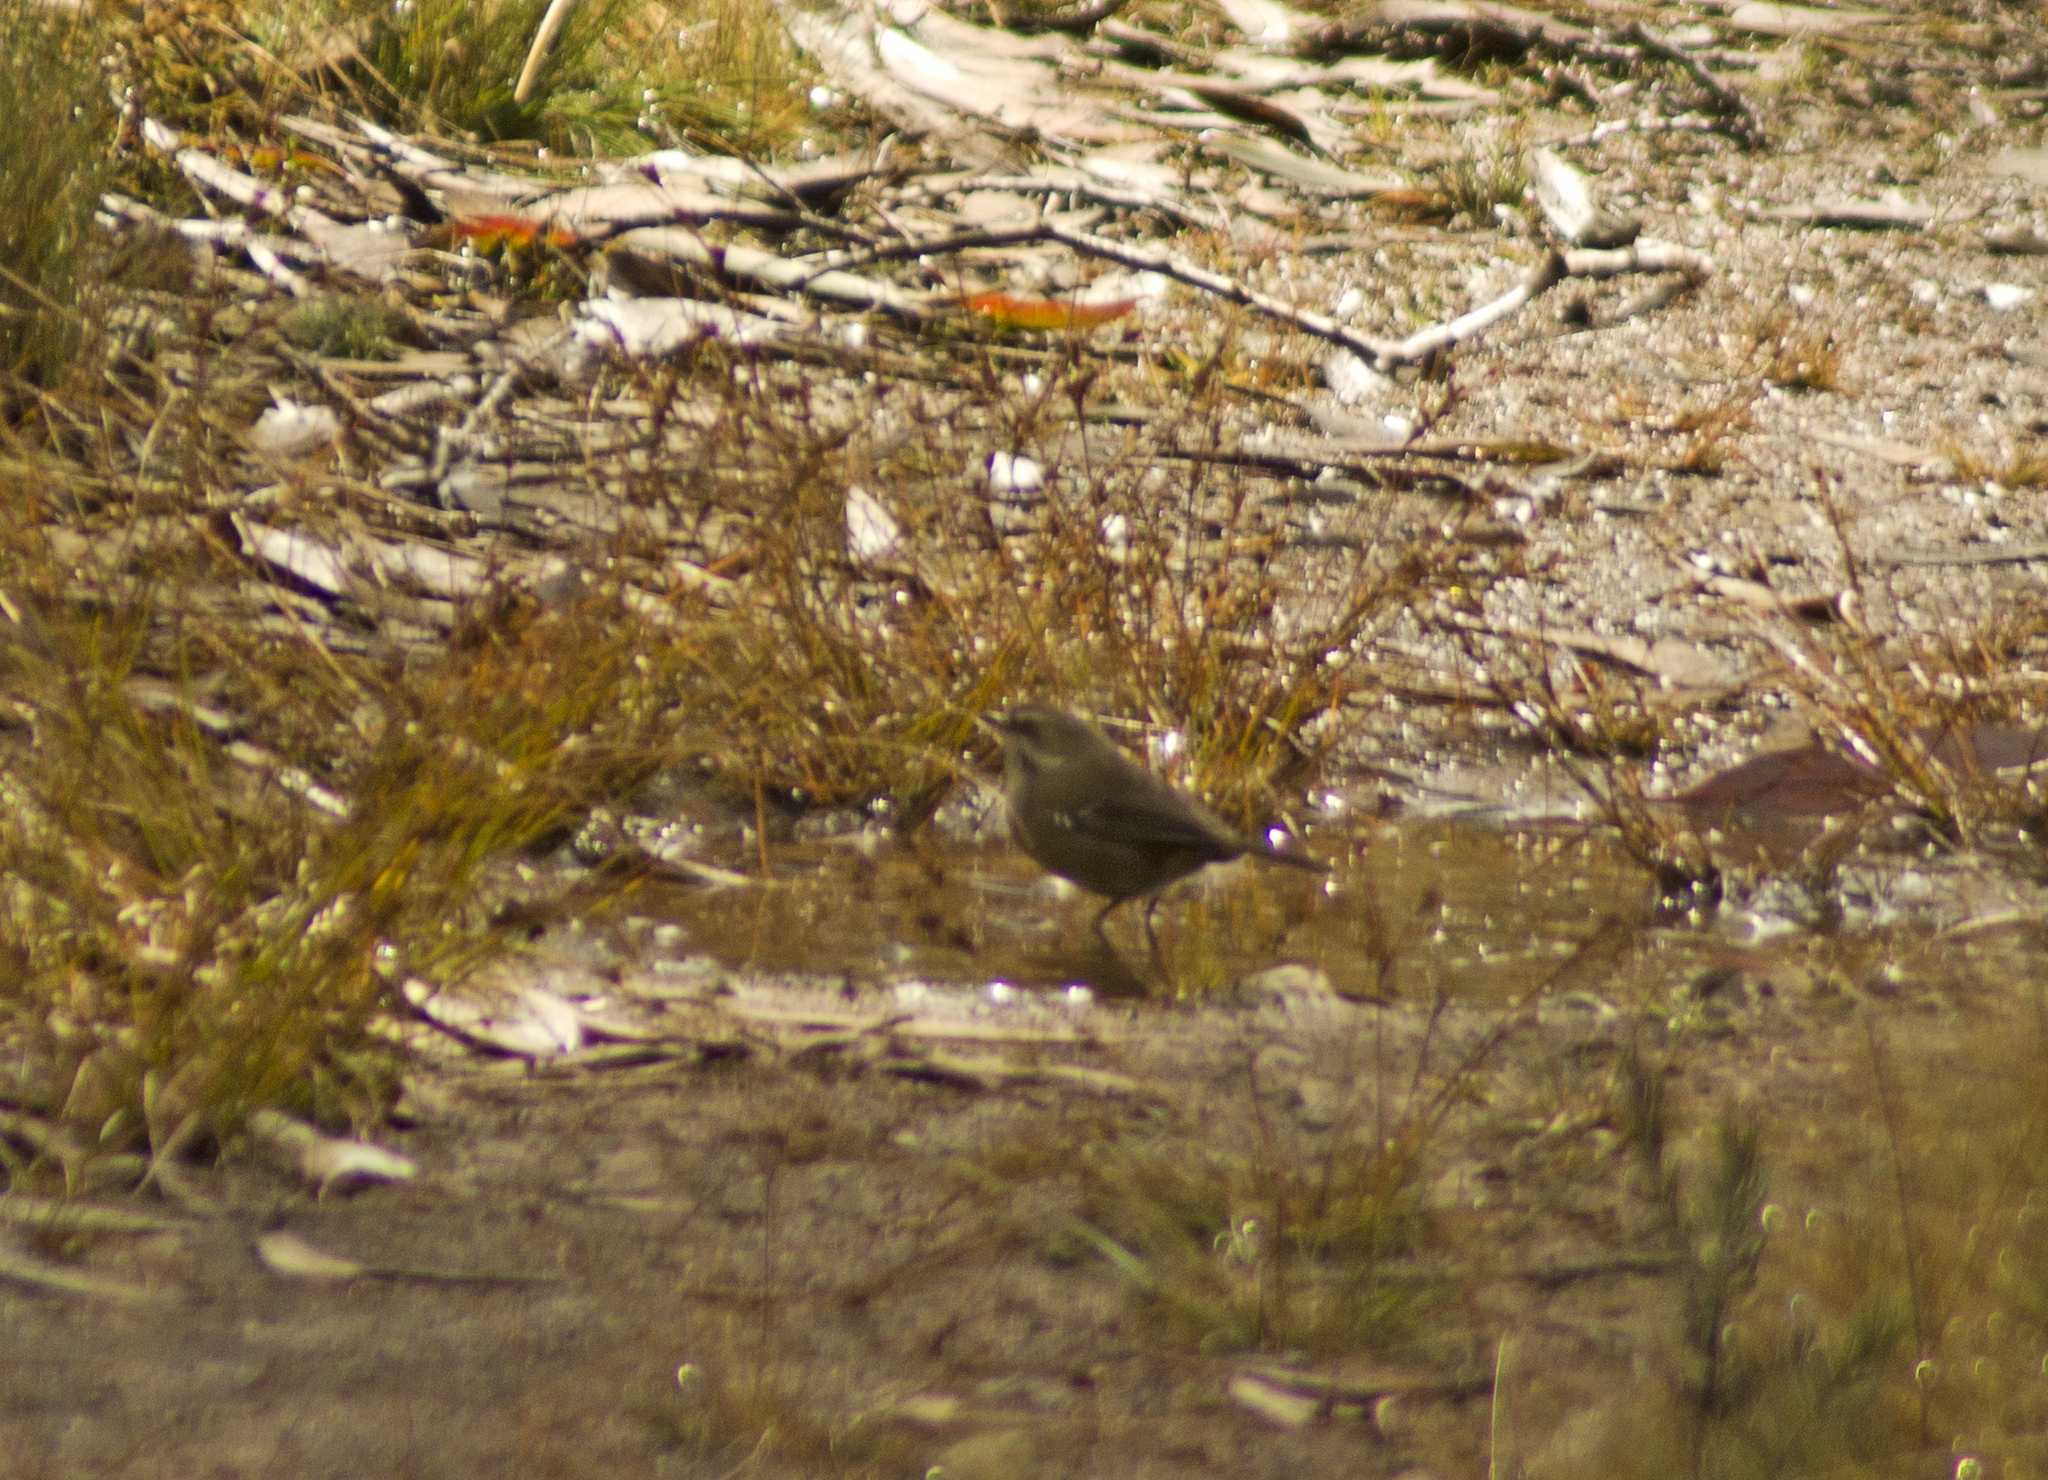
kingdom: Animalia
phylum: Chordata
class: Aves
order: Passeriformes
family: Acanthizidae
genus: Sericornis
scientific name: Sericornis frontalis
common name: White-browed scrubwren
